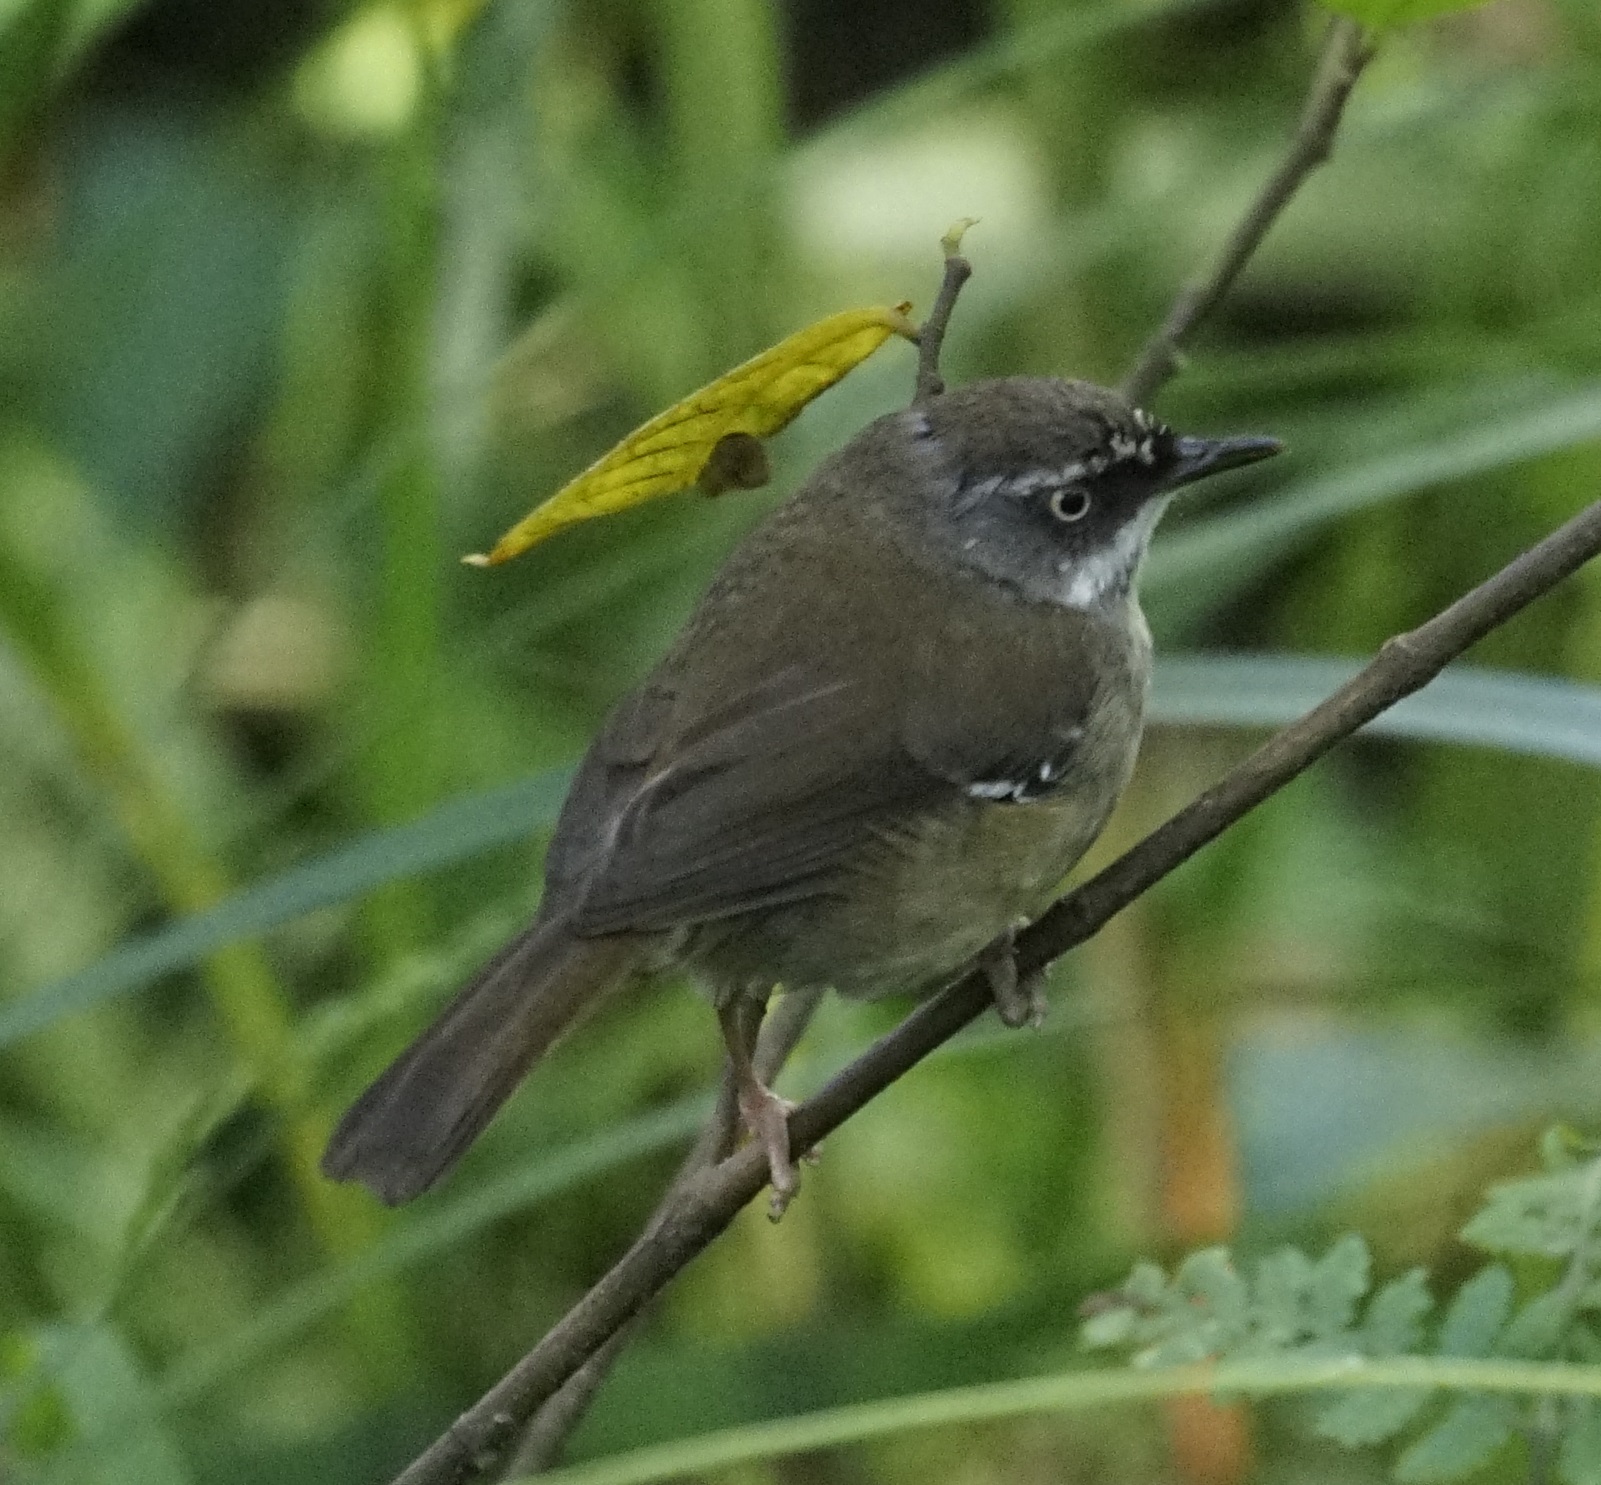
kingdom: Animalia
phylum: Chordata
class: Aves
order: Passeriformes
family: Acanthizidae
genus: Sericornis
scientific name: Sericornis frontalis
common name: White-browed scrubwren
